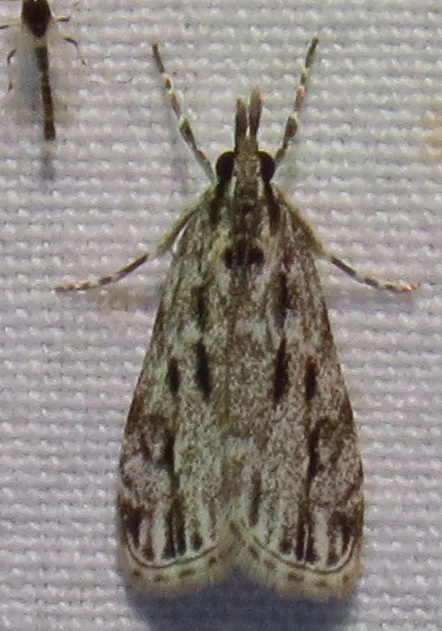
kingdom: Animalia
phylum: Arthropoda
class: Insecta
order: Lepidoptera
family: Crambidae
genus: Eudonia
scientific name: Eudonia strigalis
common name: Striped eudonia moth
